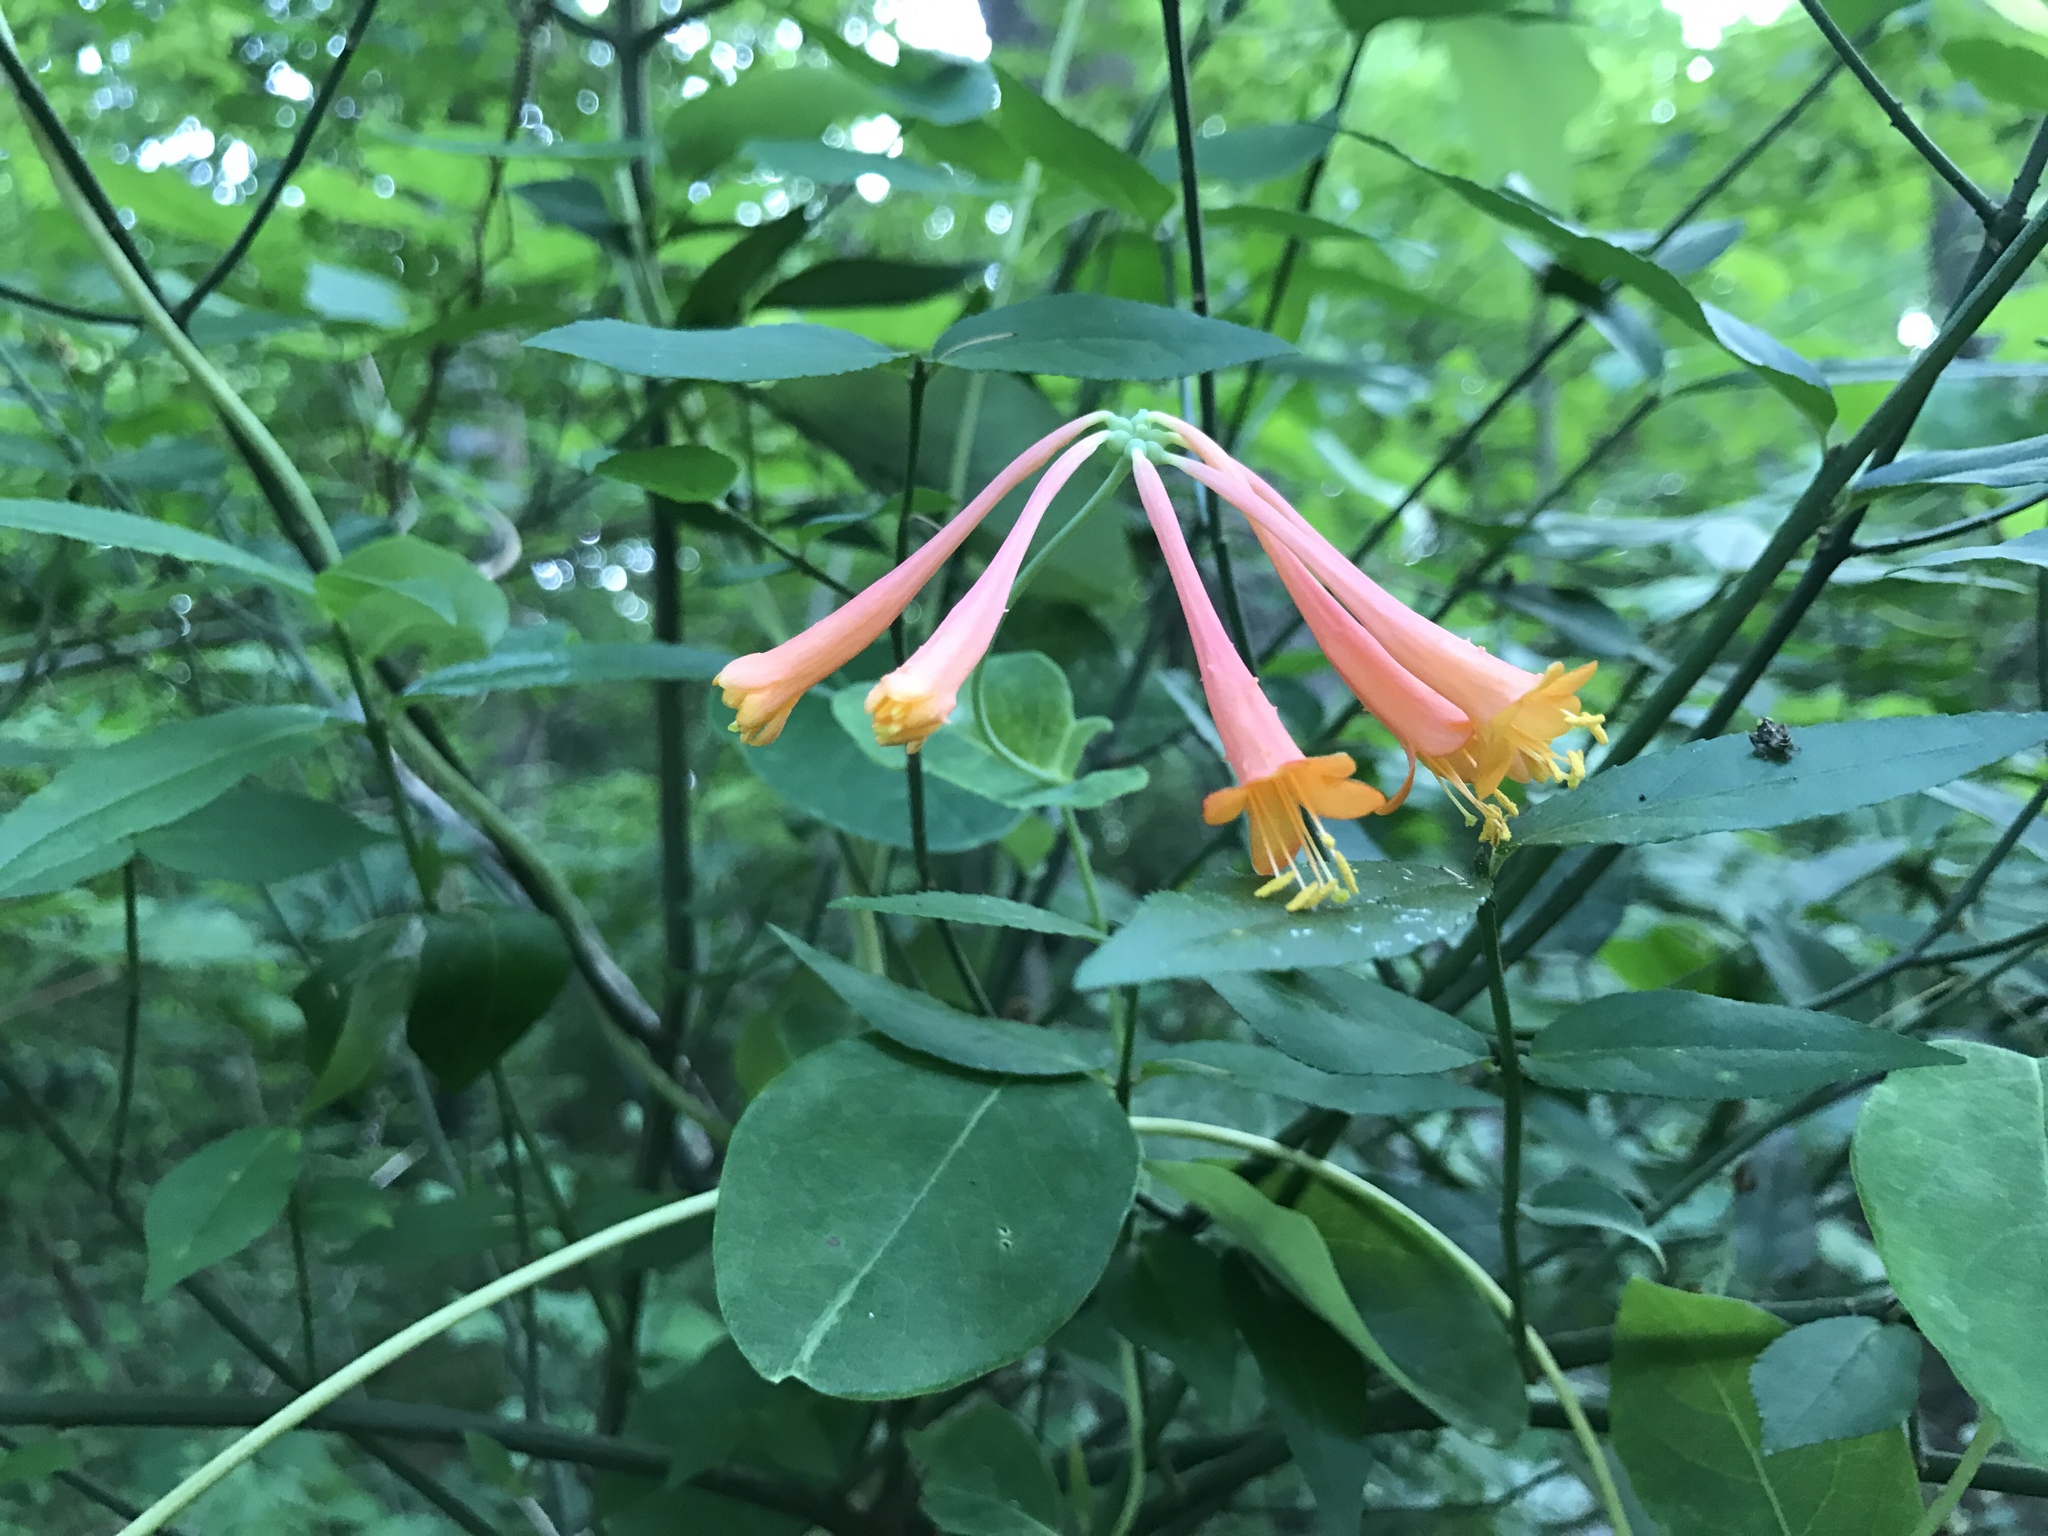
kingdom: Plantae
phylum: Tracheophyta
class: Magnoliopsida
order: Dipsacales
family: Caprifoliaceae
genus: Lonicera
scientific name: Lonicera sempervirens
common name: Coral honeysuckle
